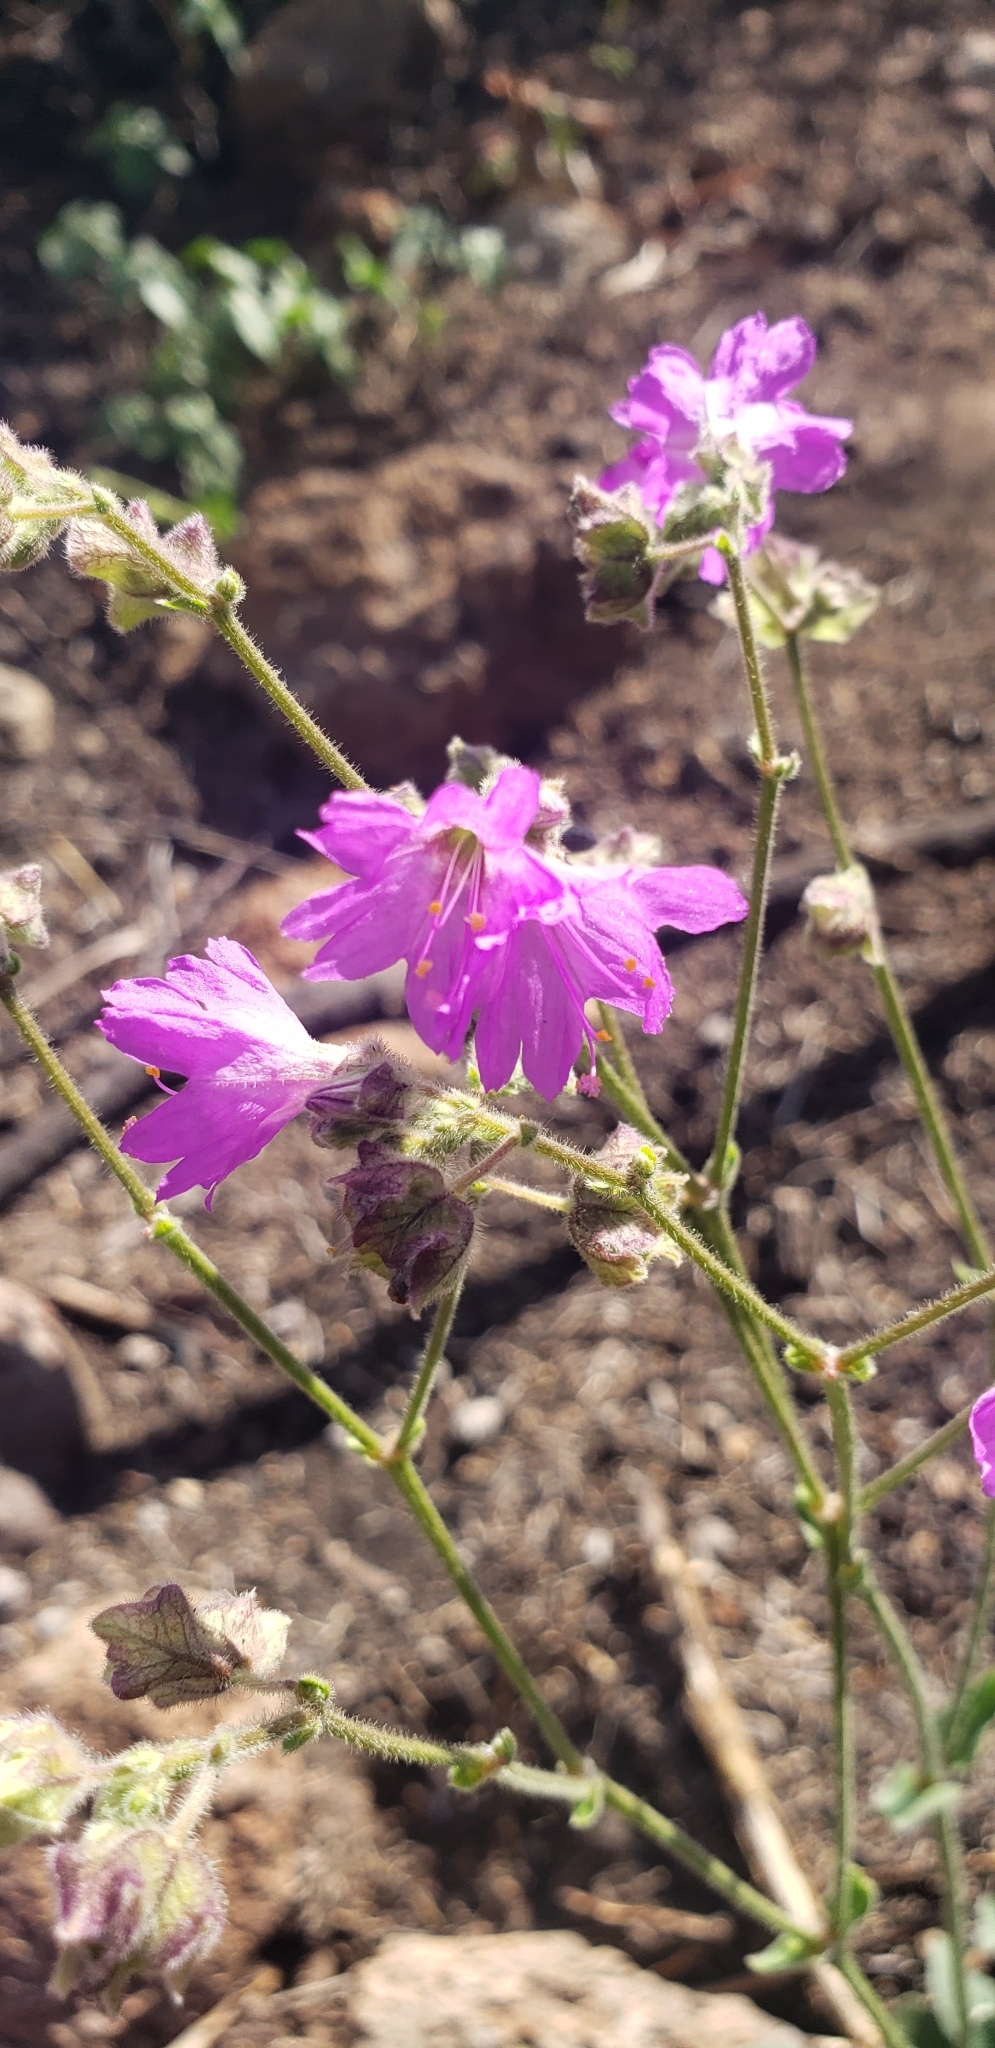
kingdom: Plantae
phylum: Tracheophyta
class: Magnoliopsida
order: Caryophyllales
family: Nyctaginaceae
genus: Mirabilis
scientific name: Mirabilis albida
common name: Hairy four-o'clock
